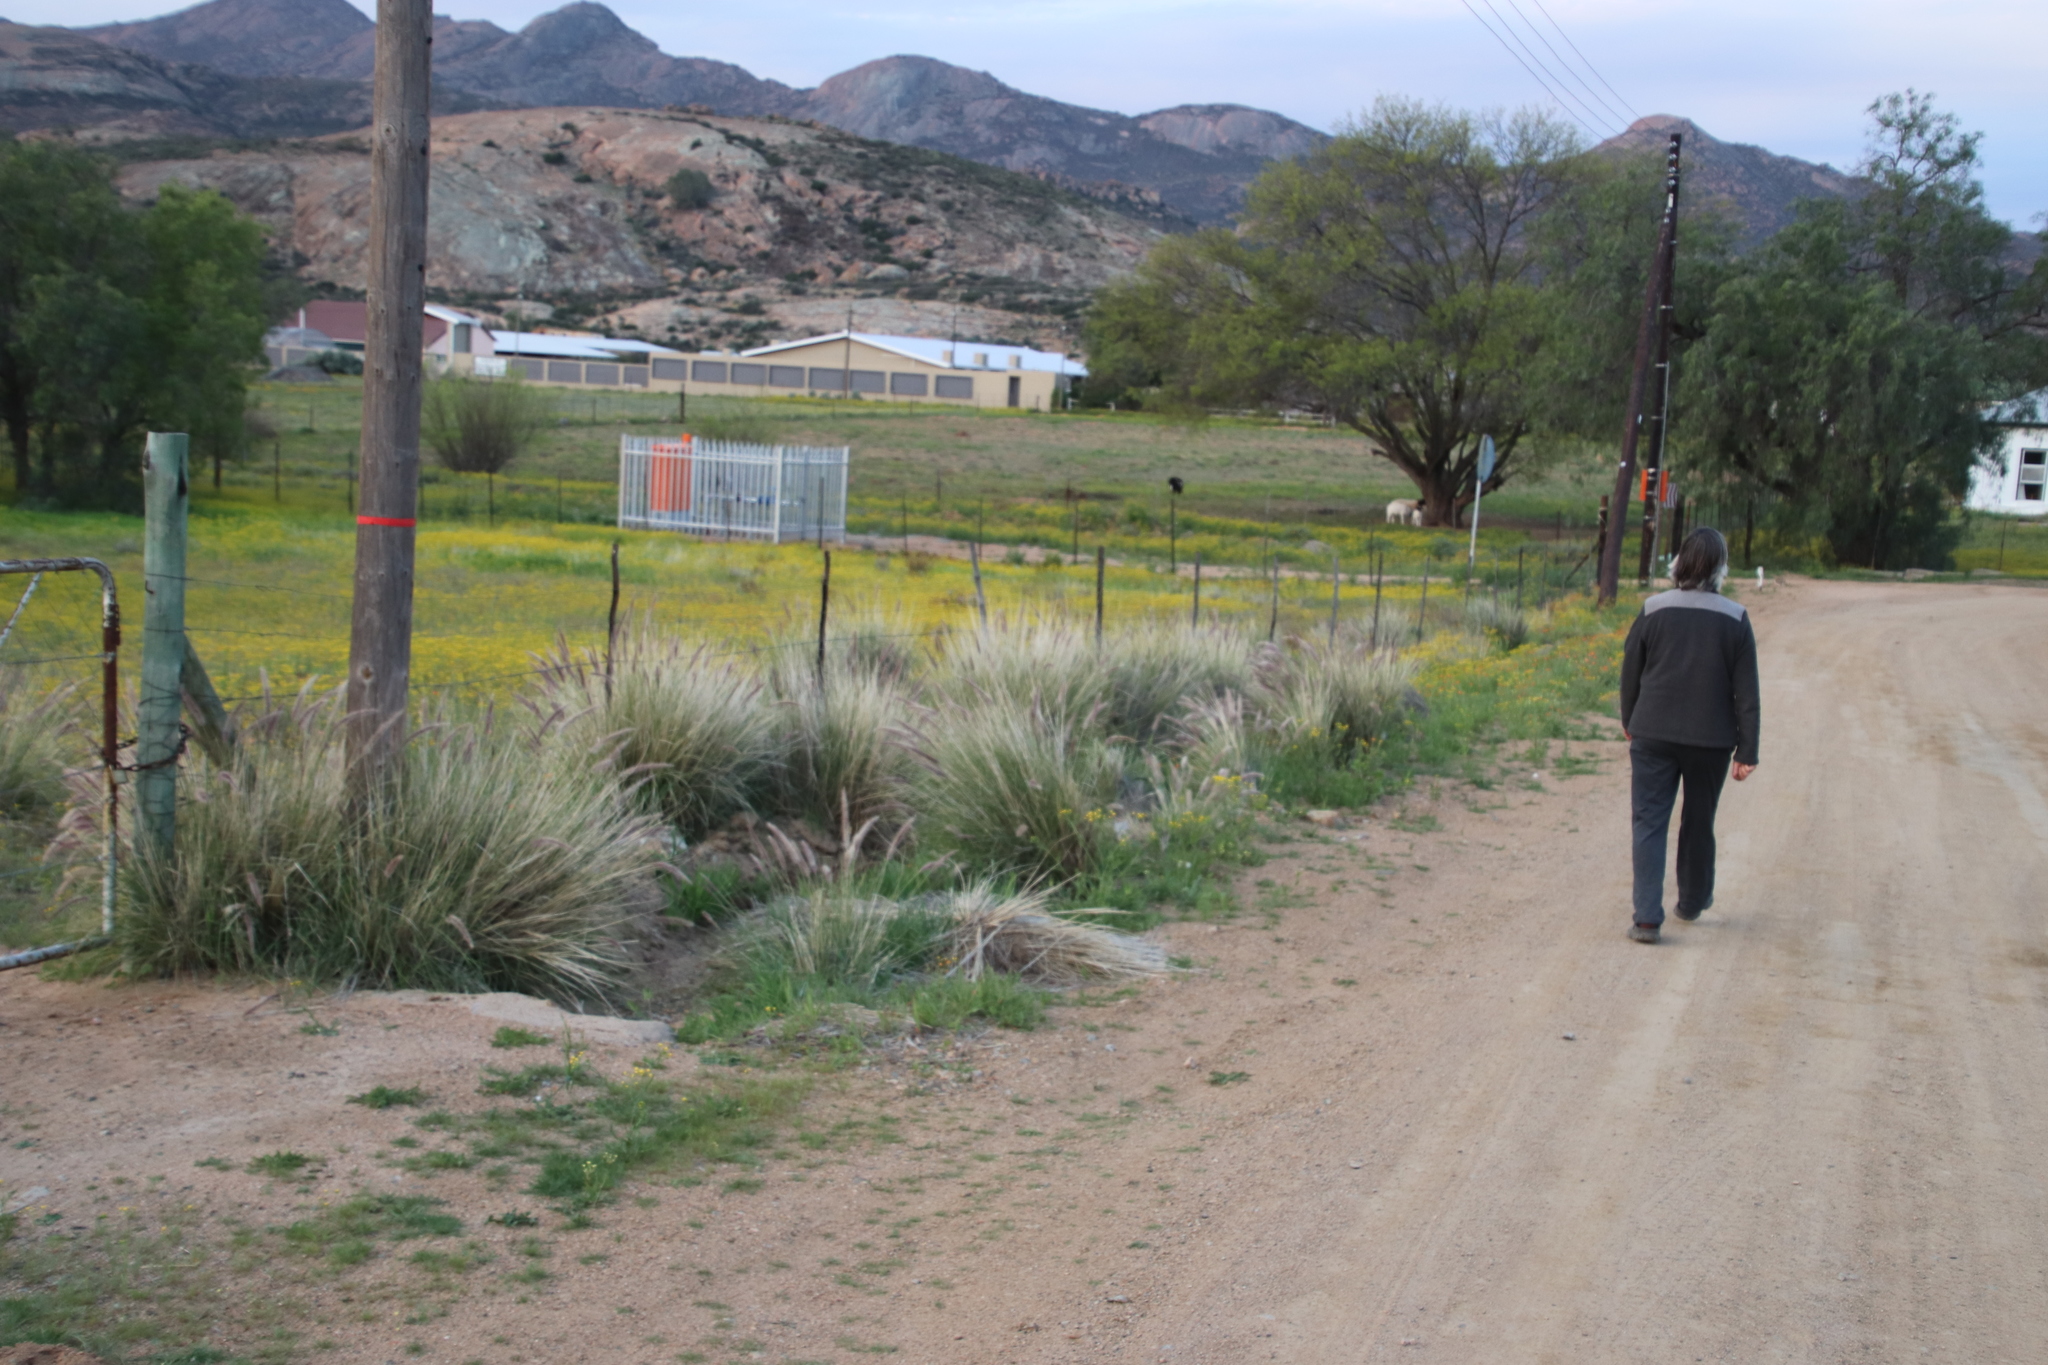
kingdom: Plantae
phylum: Tracheophyta
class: Liliopsida
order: Poales
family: Poaceae
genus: Cenchrus
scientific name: Cenchrus setaceus
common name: Crimson fountaingrass
